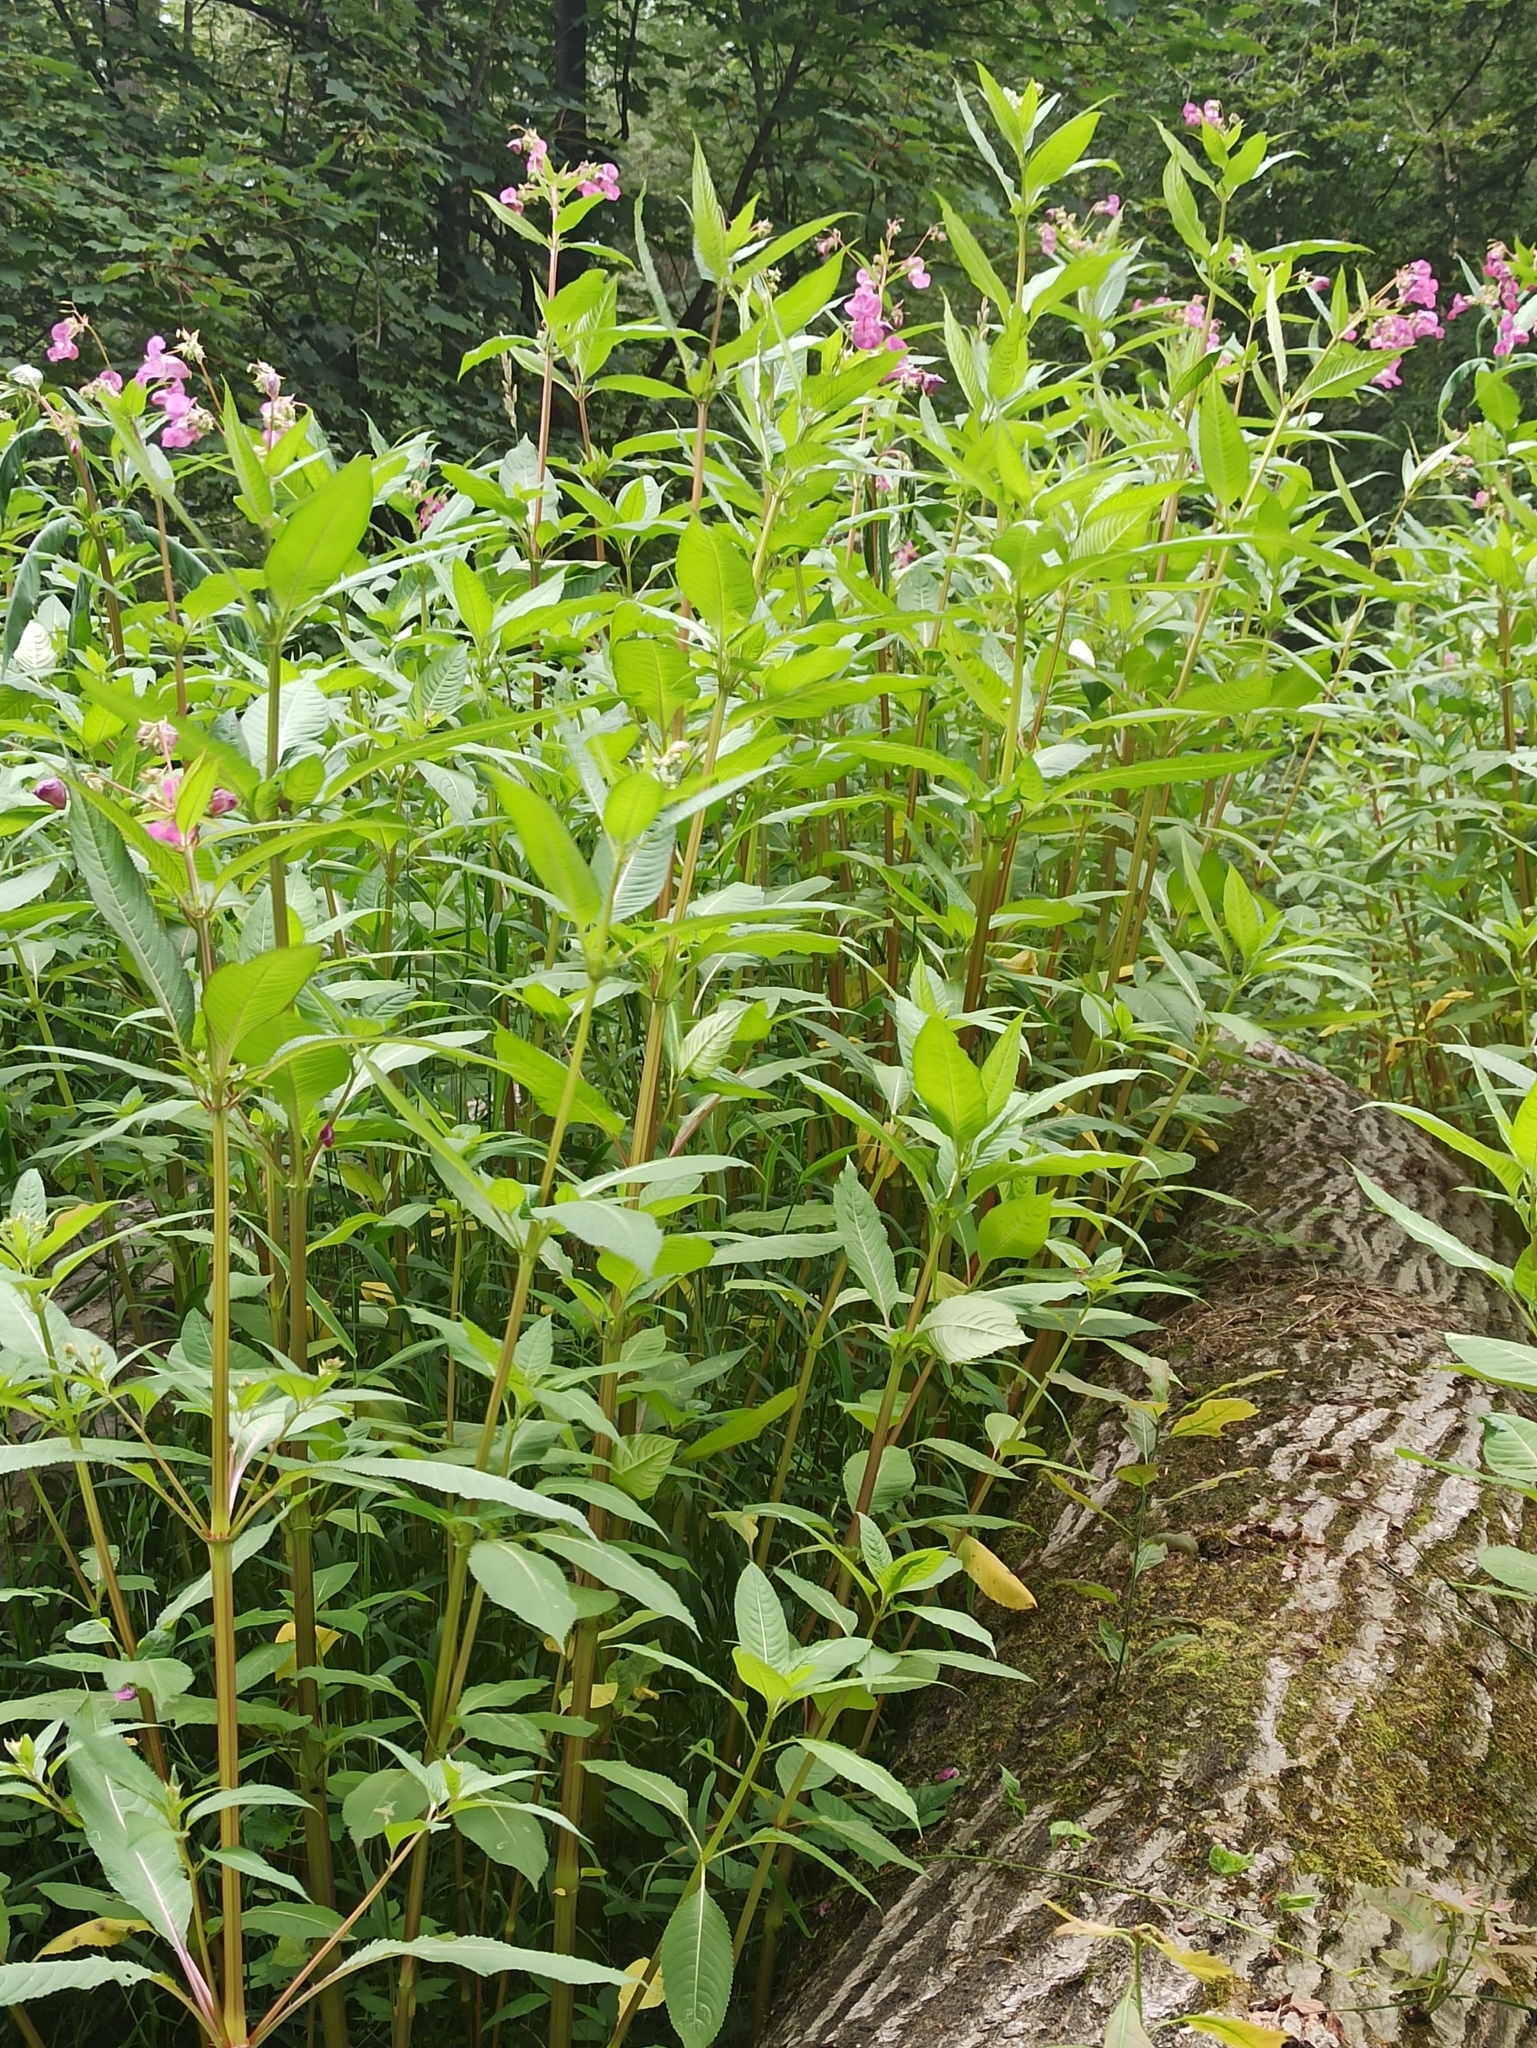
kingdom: Plantae
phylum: Tracheophyta
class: Magnoliopsida
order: Ericales
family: Balsaminaceae
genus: Impatiens
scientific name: Impatiens glandulifera
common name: Himalayan balsam
